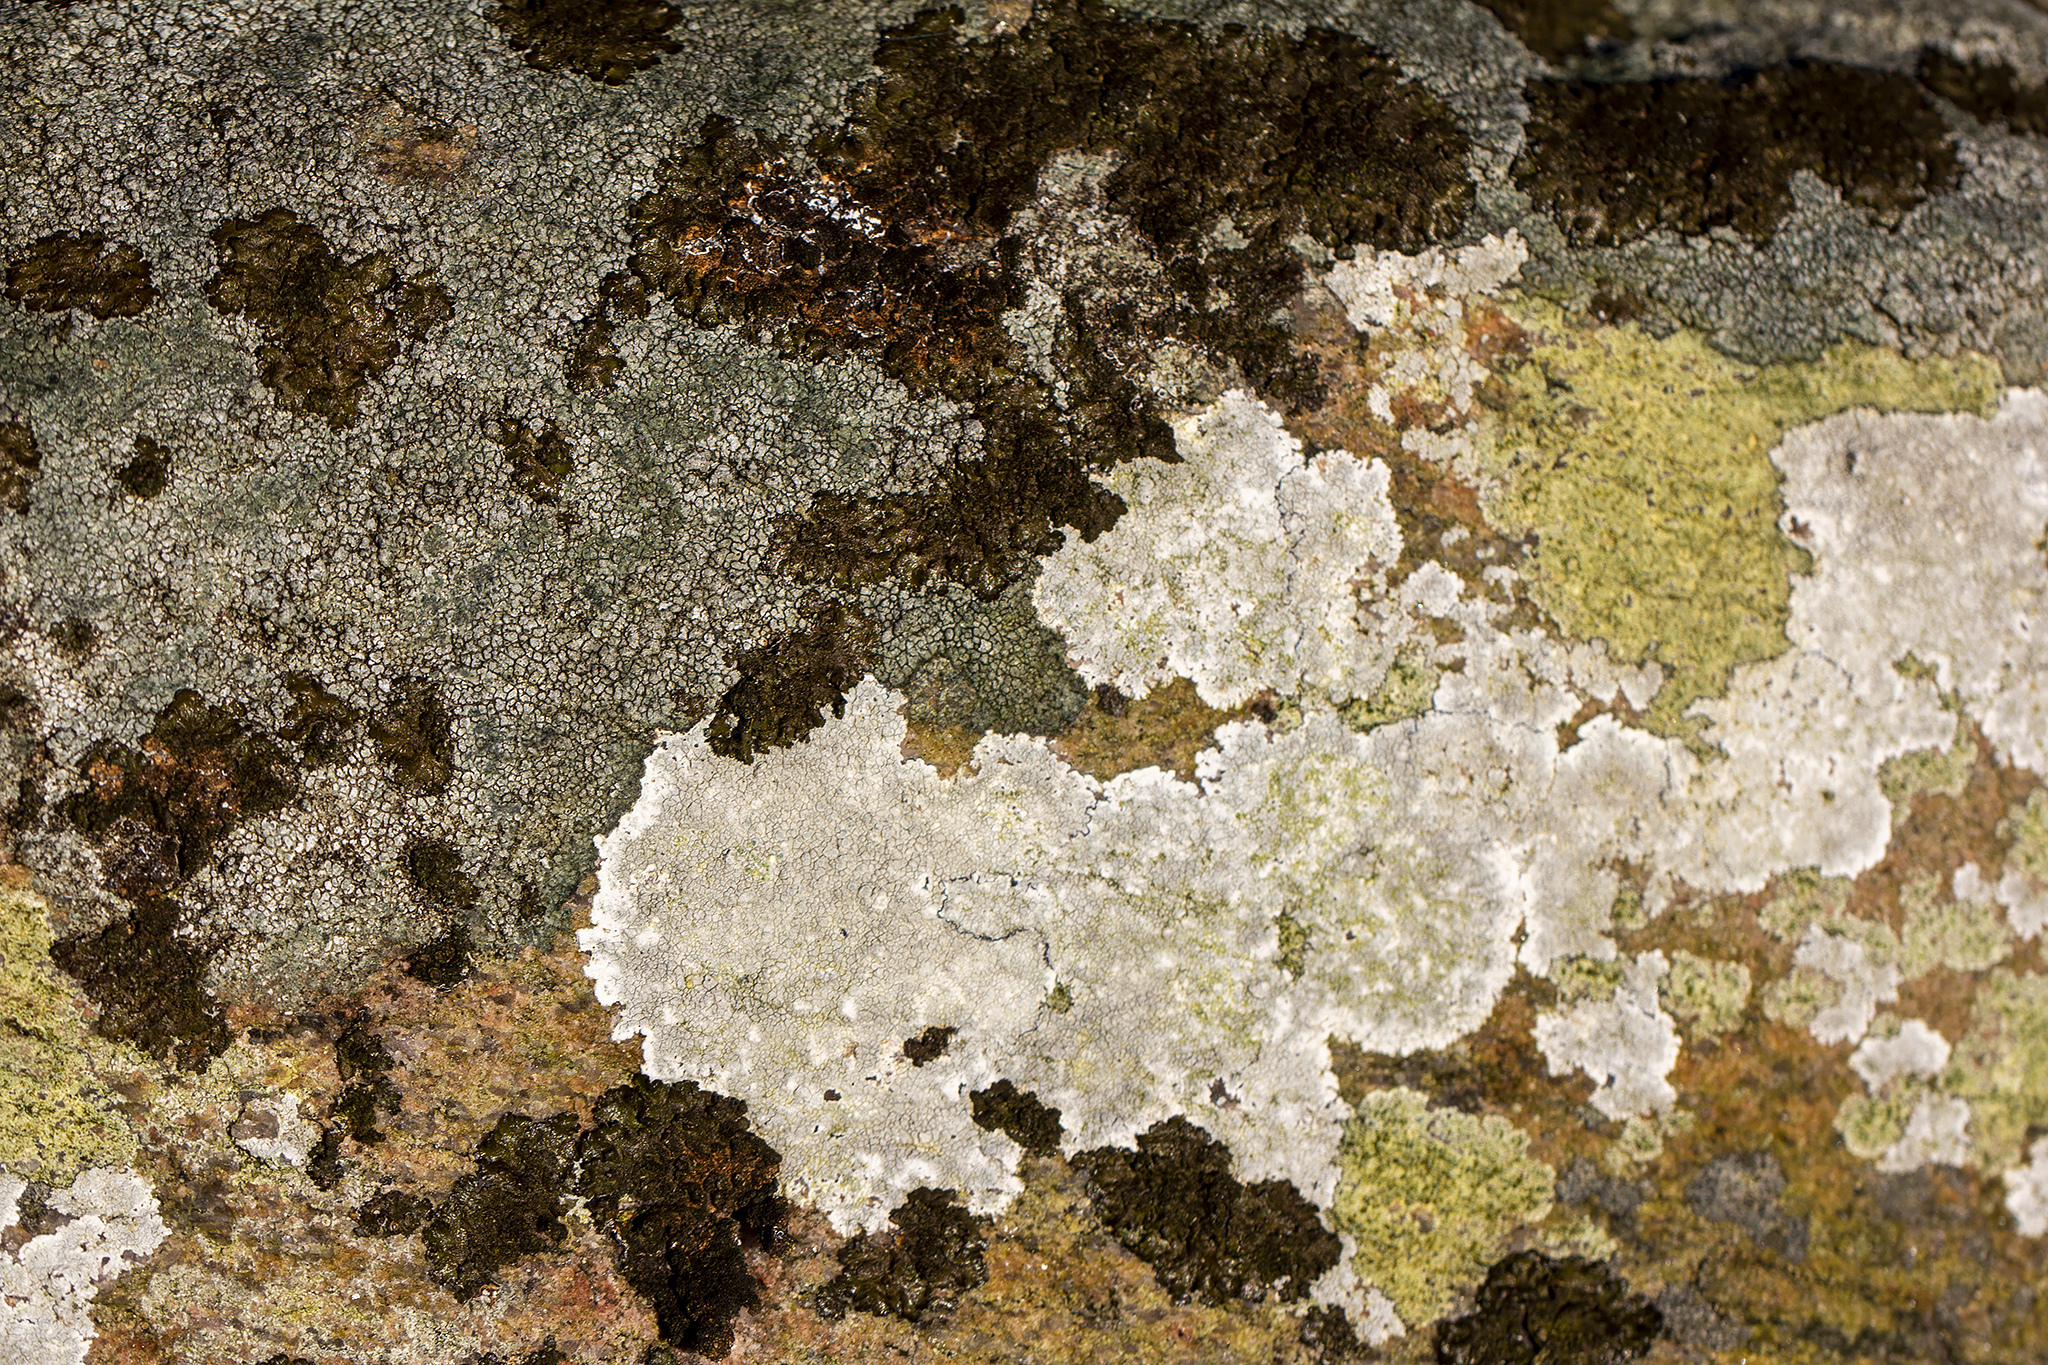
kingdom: Fungi
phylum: Ascomycota
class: Lecanoromycetes
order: Lecanorales
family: Lecanoraceae
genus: Glaucomaria
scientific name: Glaucomaria rupicola
